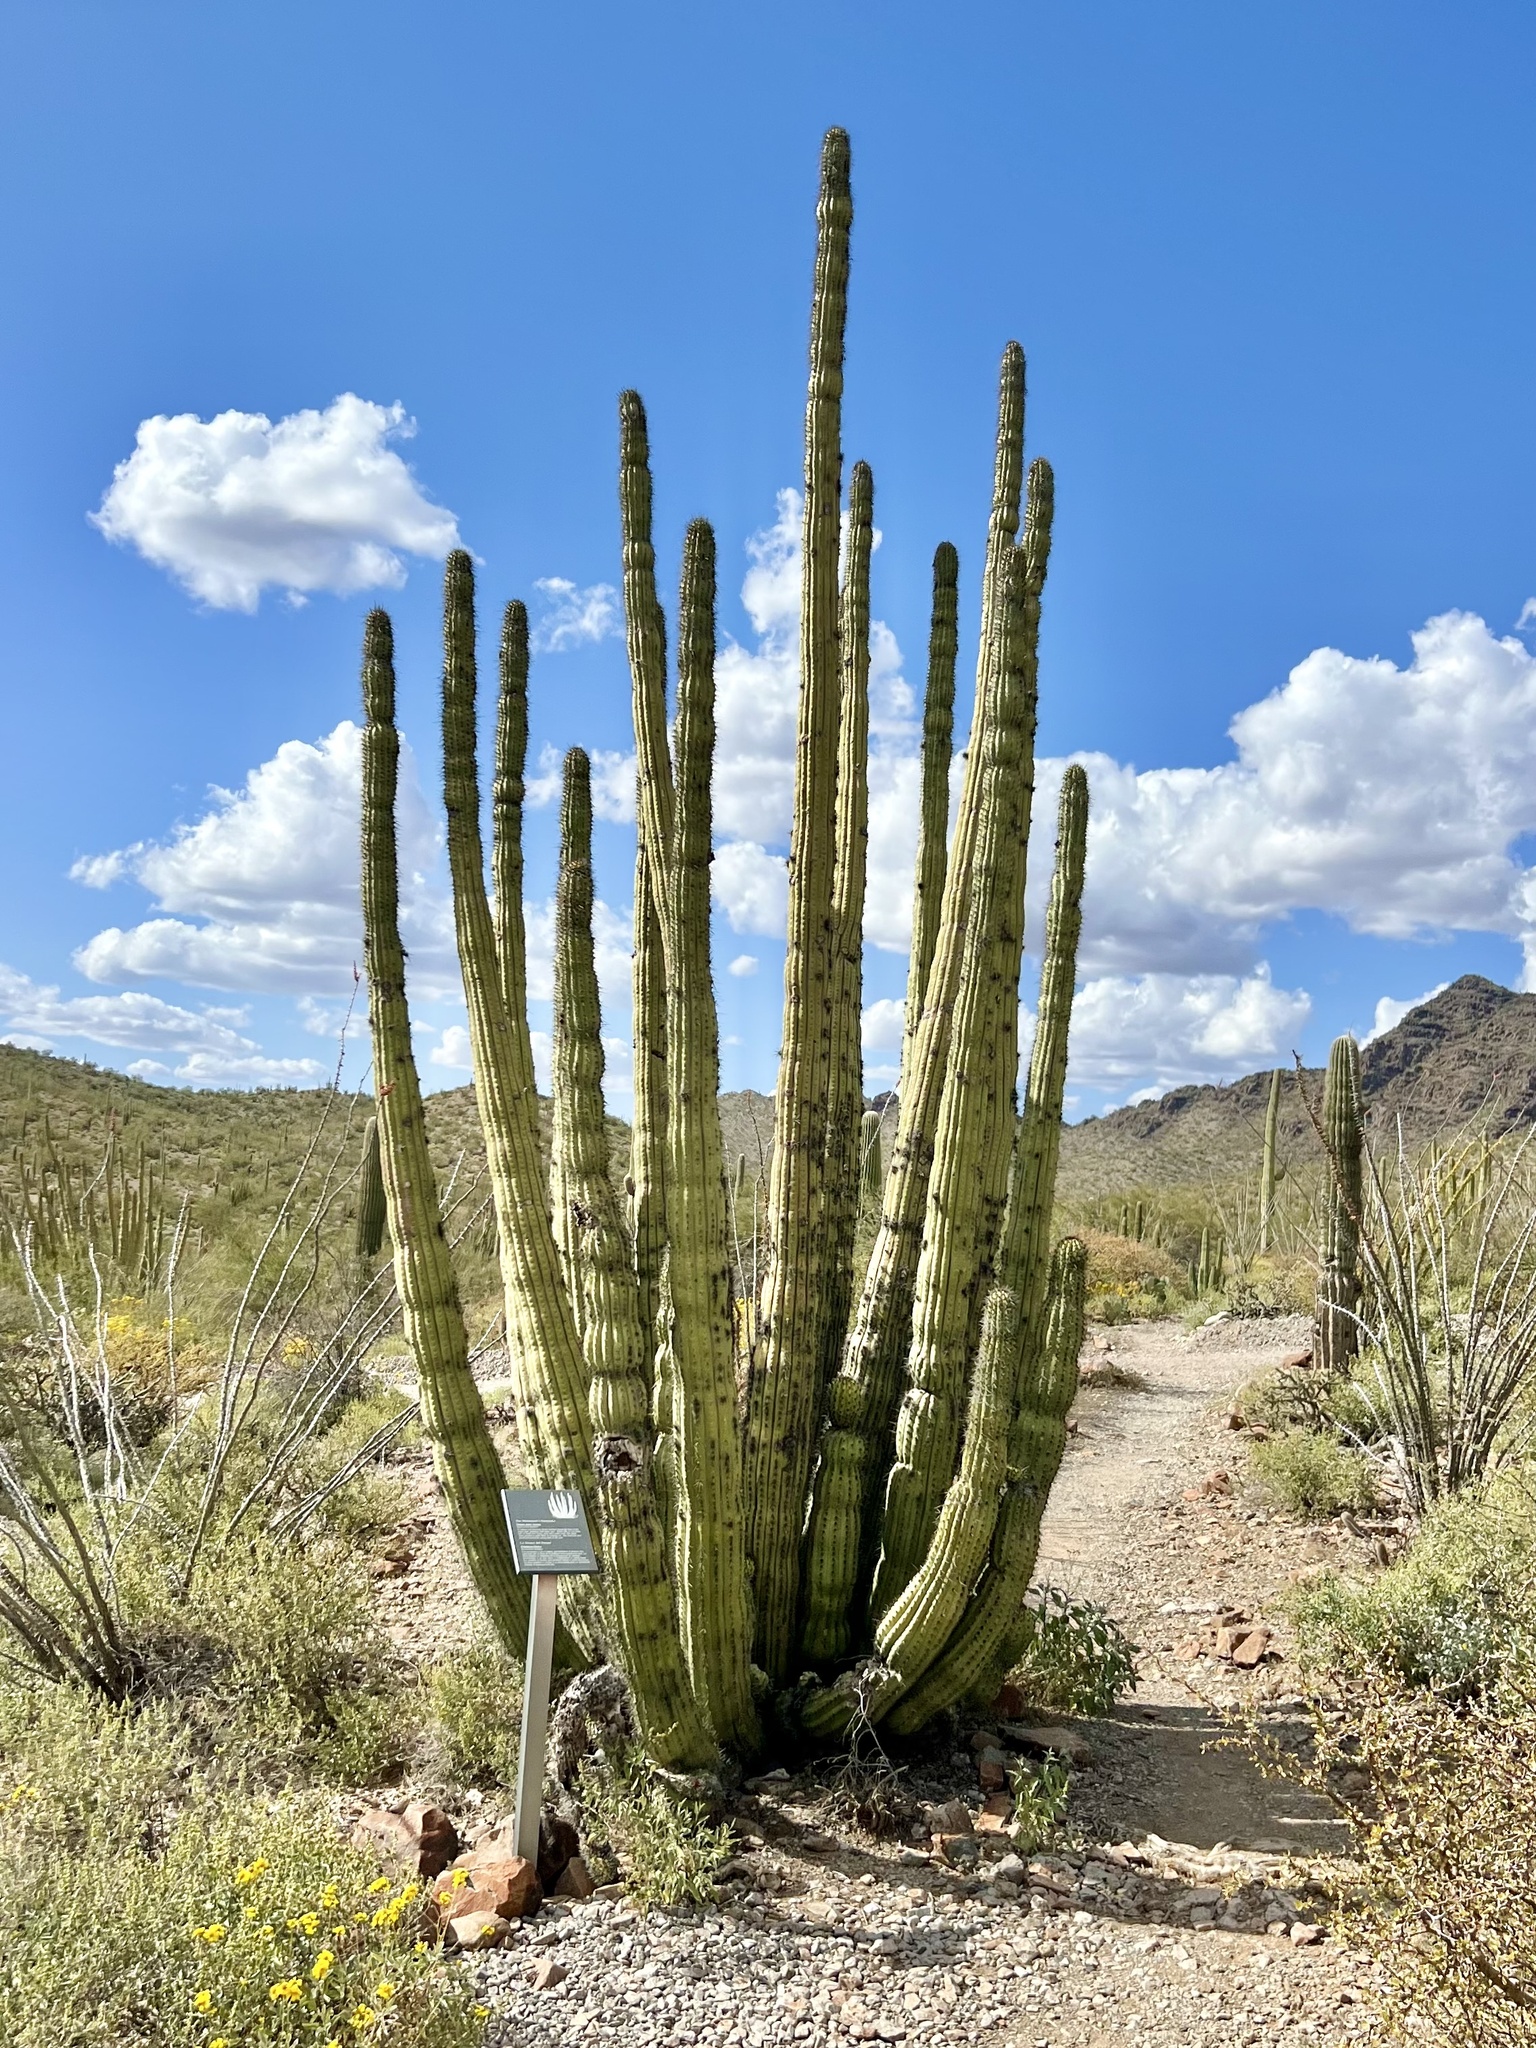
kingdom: Plantae
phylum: Tracheophyta
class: Magnoliopsida
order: Caryophyllales
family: Cactaceae
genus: Stenocereus
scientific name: Stenocereus thurberi
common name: Organ pipe cactus
